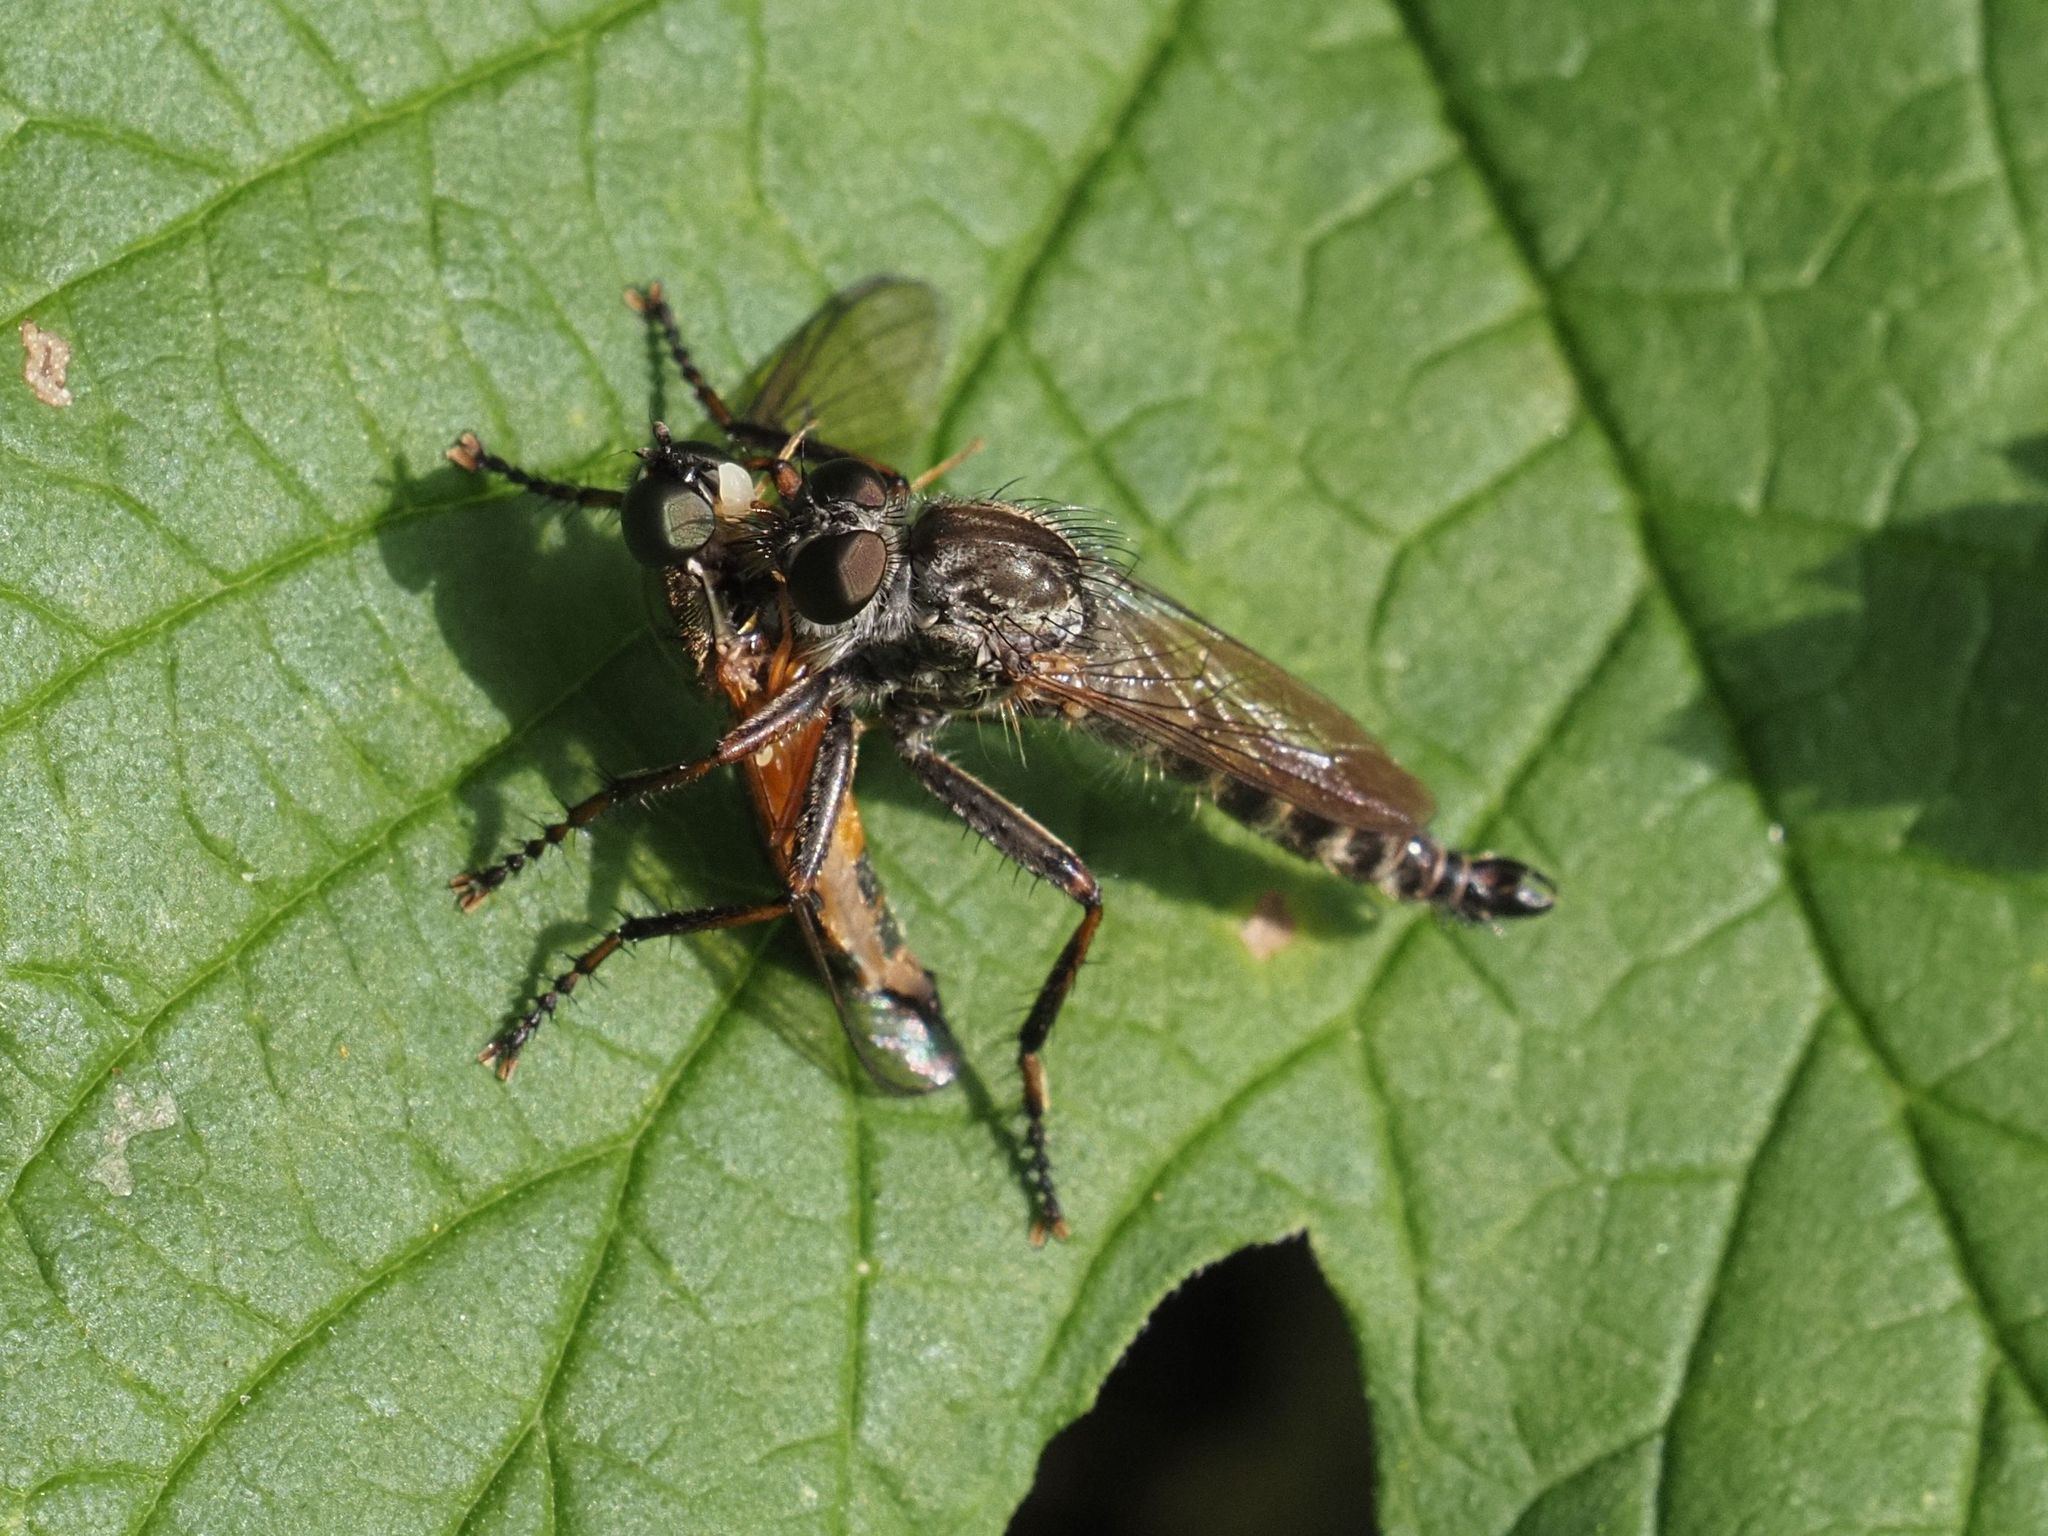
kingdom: Animalia
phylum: Arthropoda
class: Insecta
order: Diptera
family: Asilidae
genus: Machimus
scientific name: Machimus atricapillus
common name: Kite-tailed robberfly
